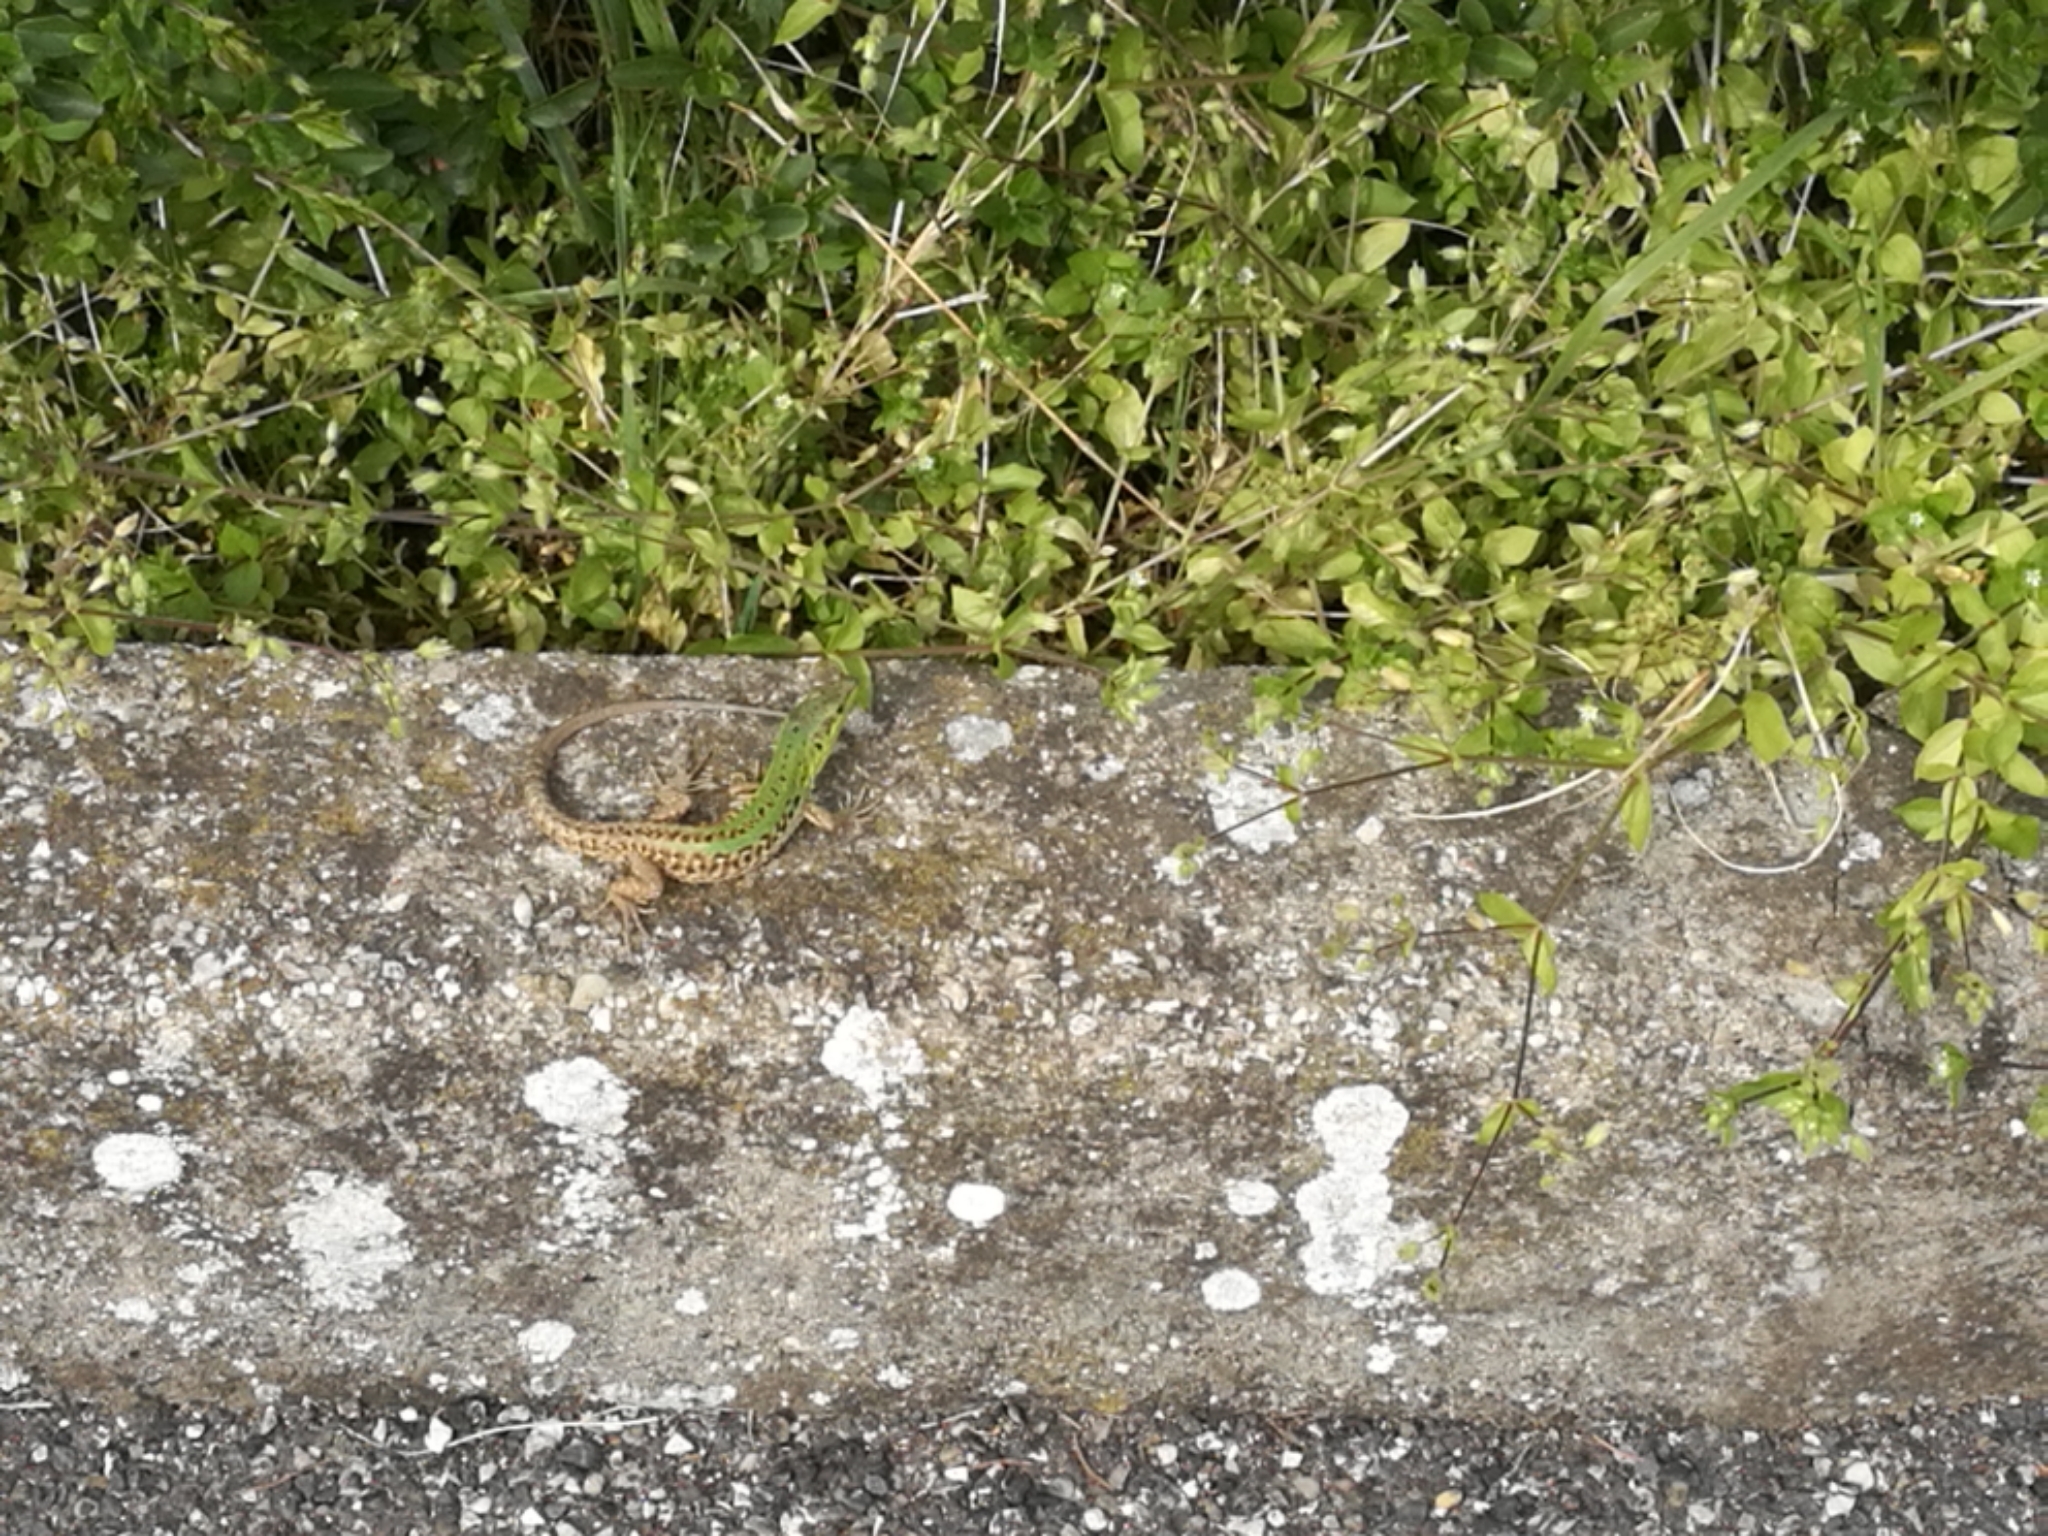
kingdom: Animalia
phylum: Chordata
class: Squamata
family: Lacertidae
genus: Podarcis
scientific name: Podarcis siculus
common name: Italian wall lizard
